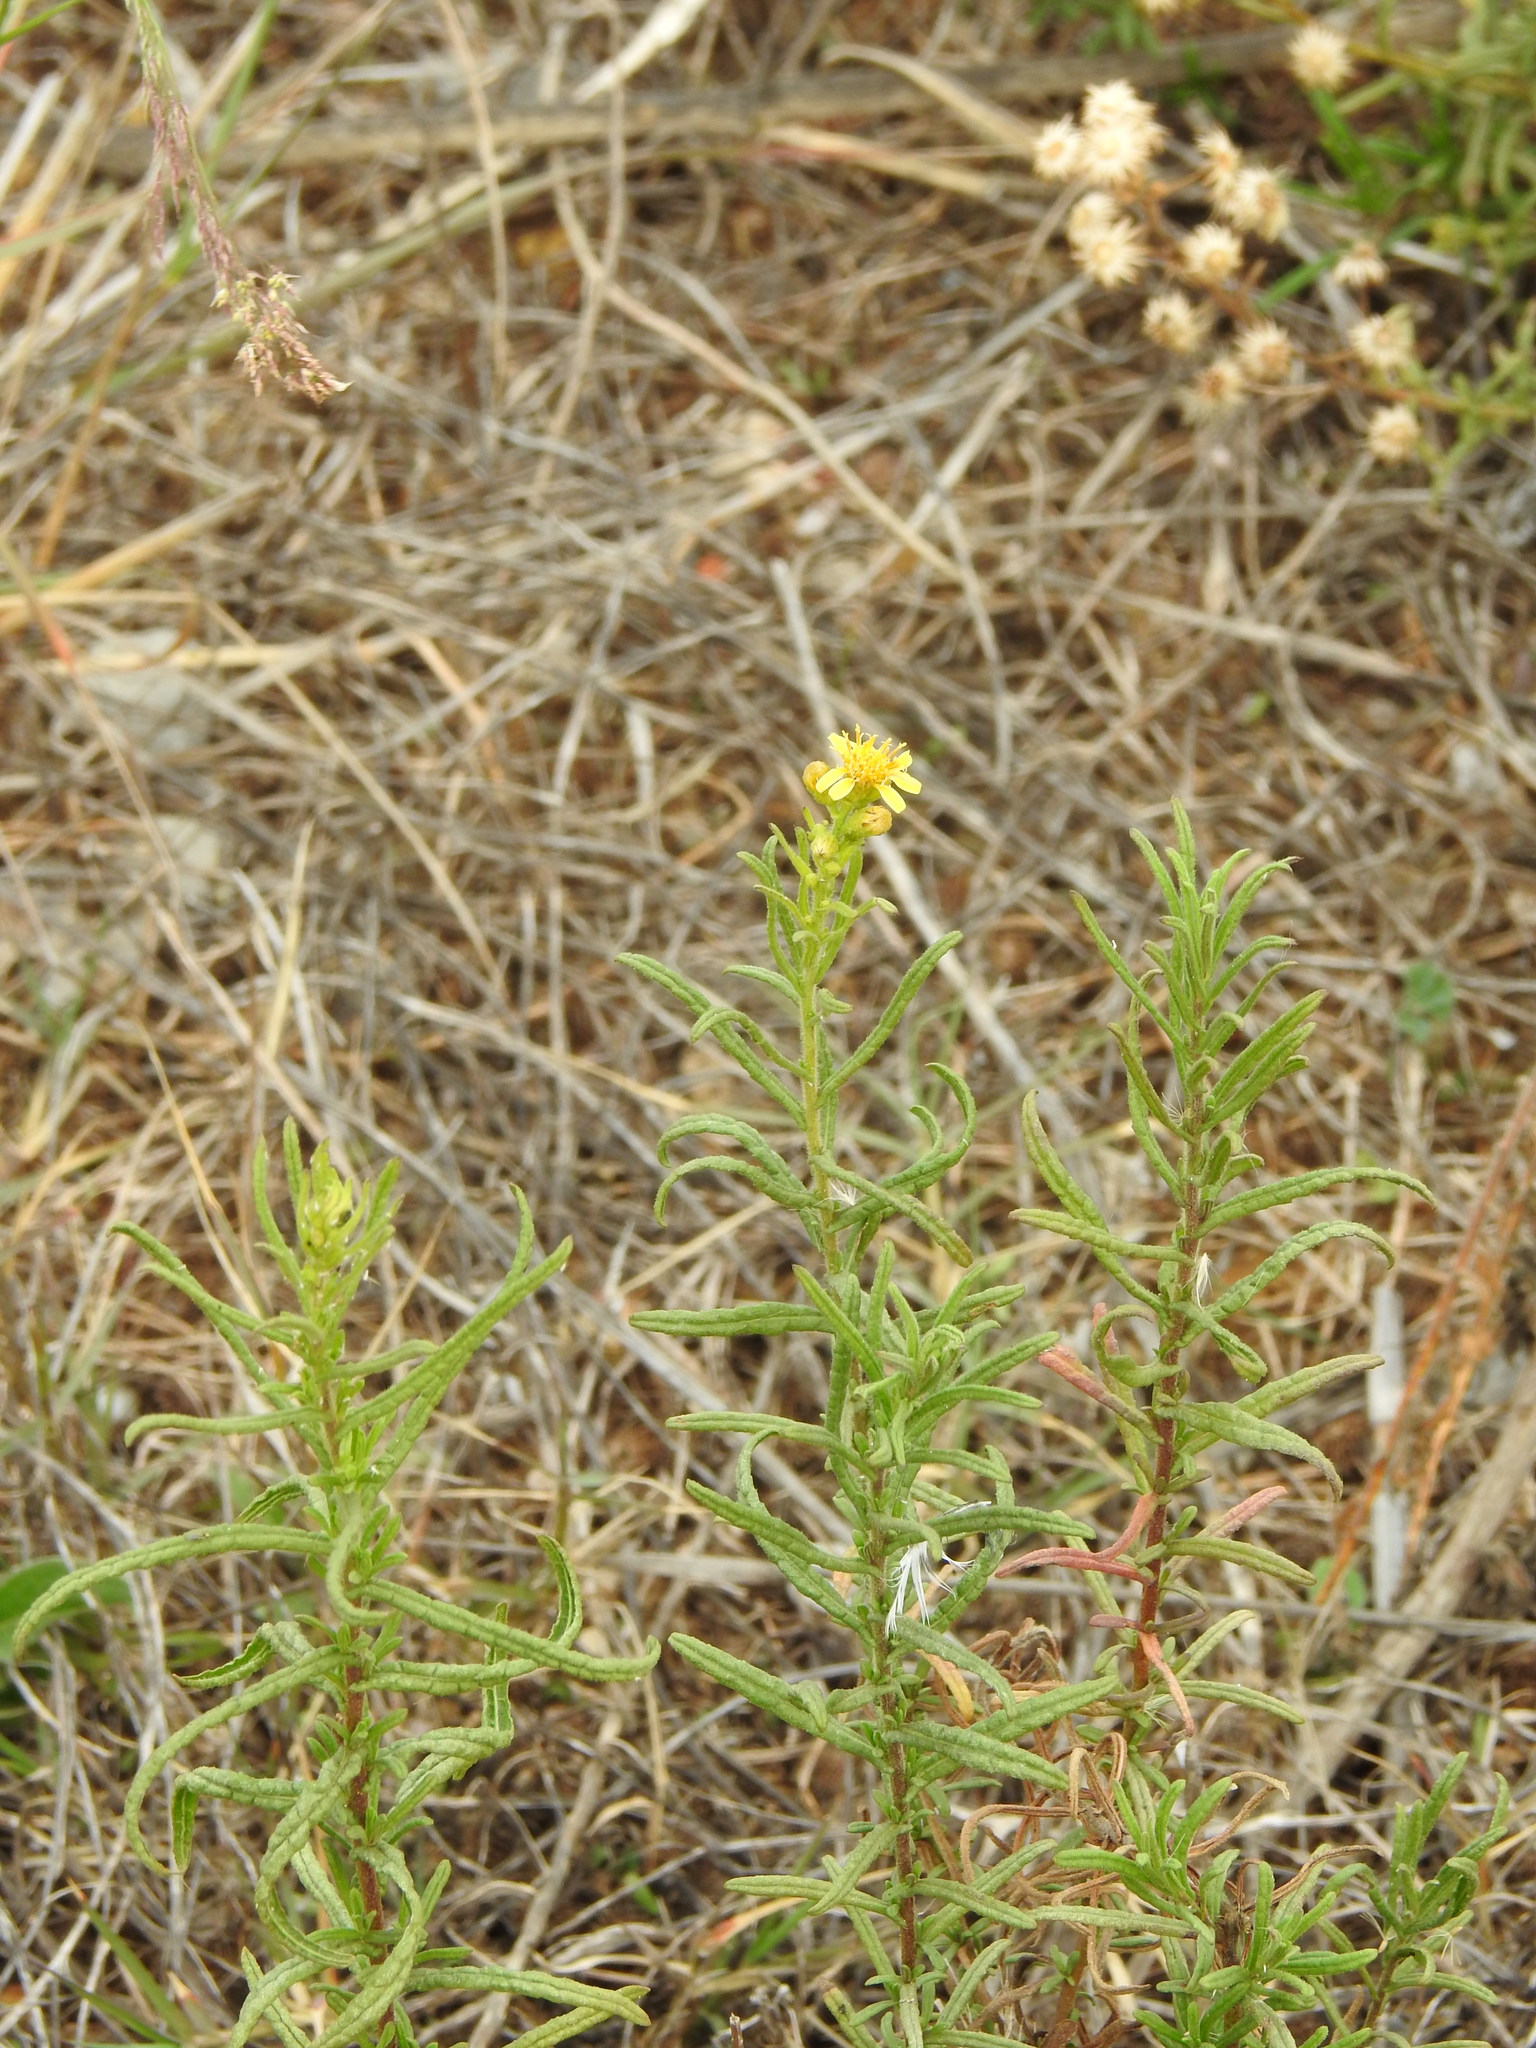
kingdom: Plantae
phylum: Tracheophyta
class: Magnoliopsida
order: Asterales
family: Asteraceae
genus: Dittrichia
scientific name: Dittrichia viscosa
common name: Woody fleabane
